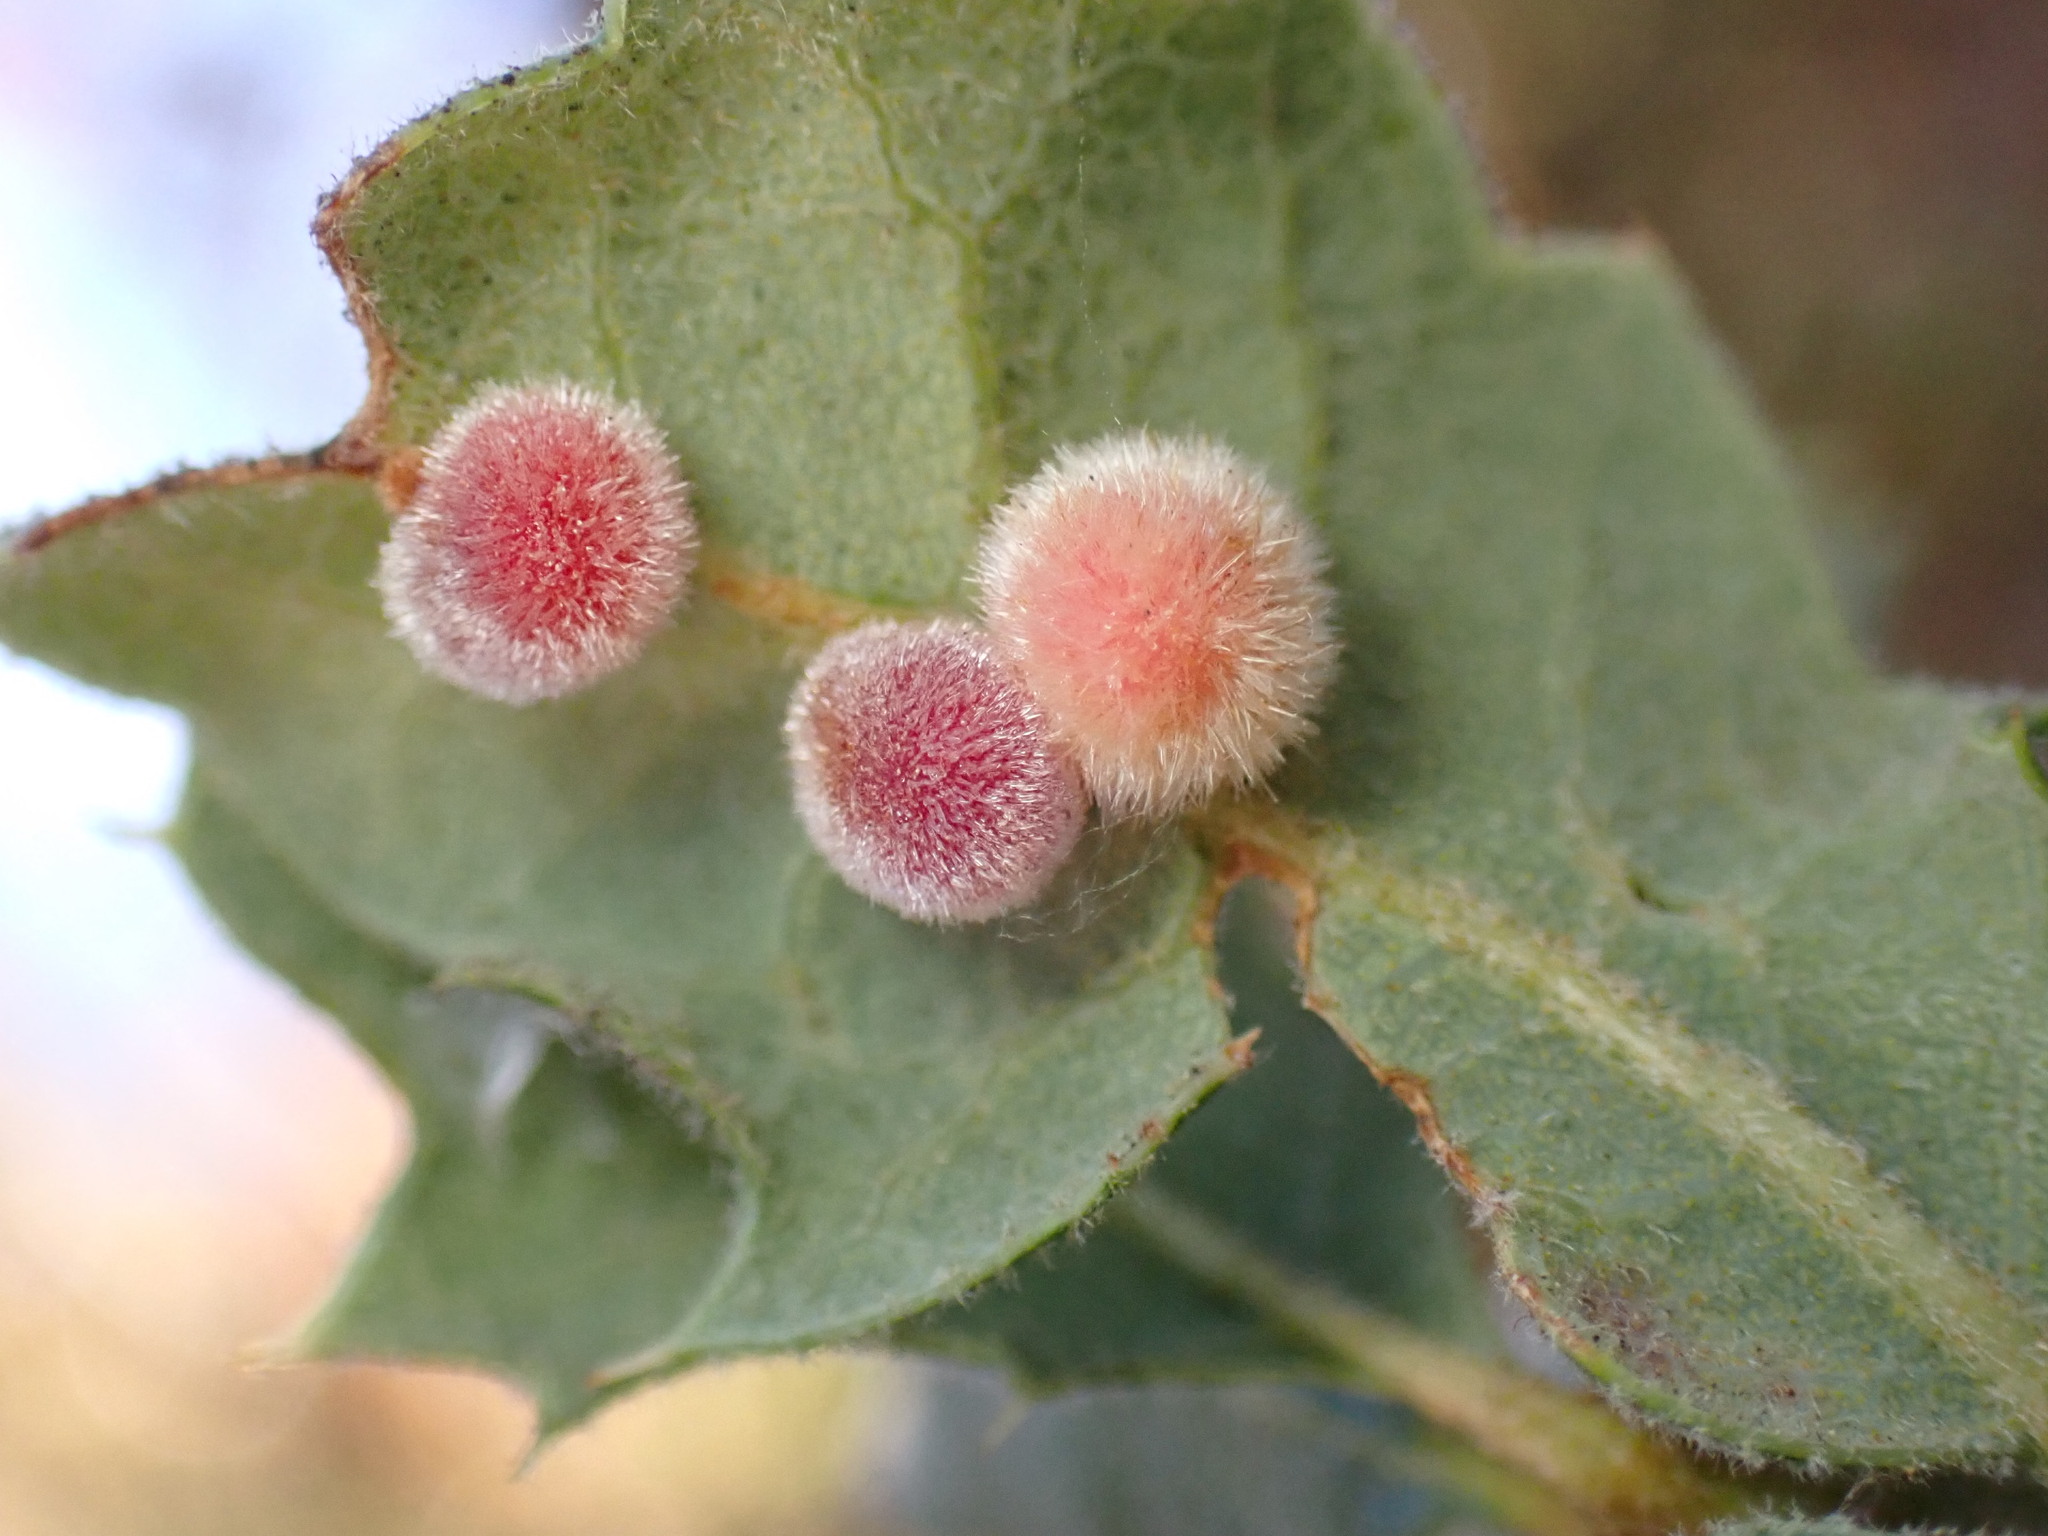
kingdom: Animalia
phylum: Arthropoda
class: Insecta
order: Hymenoptera
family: Cynipidae
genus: Atrusca
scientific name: Atrusca
